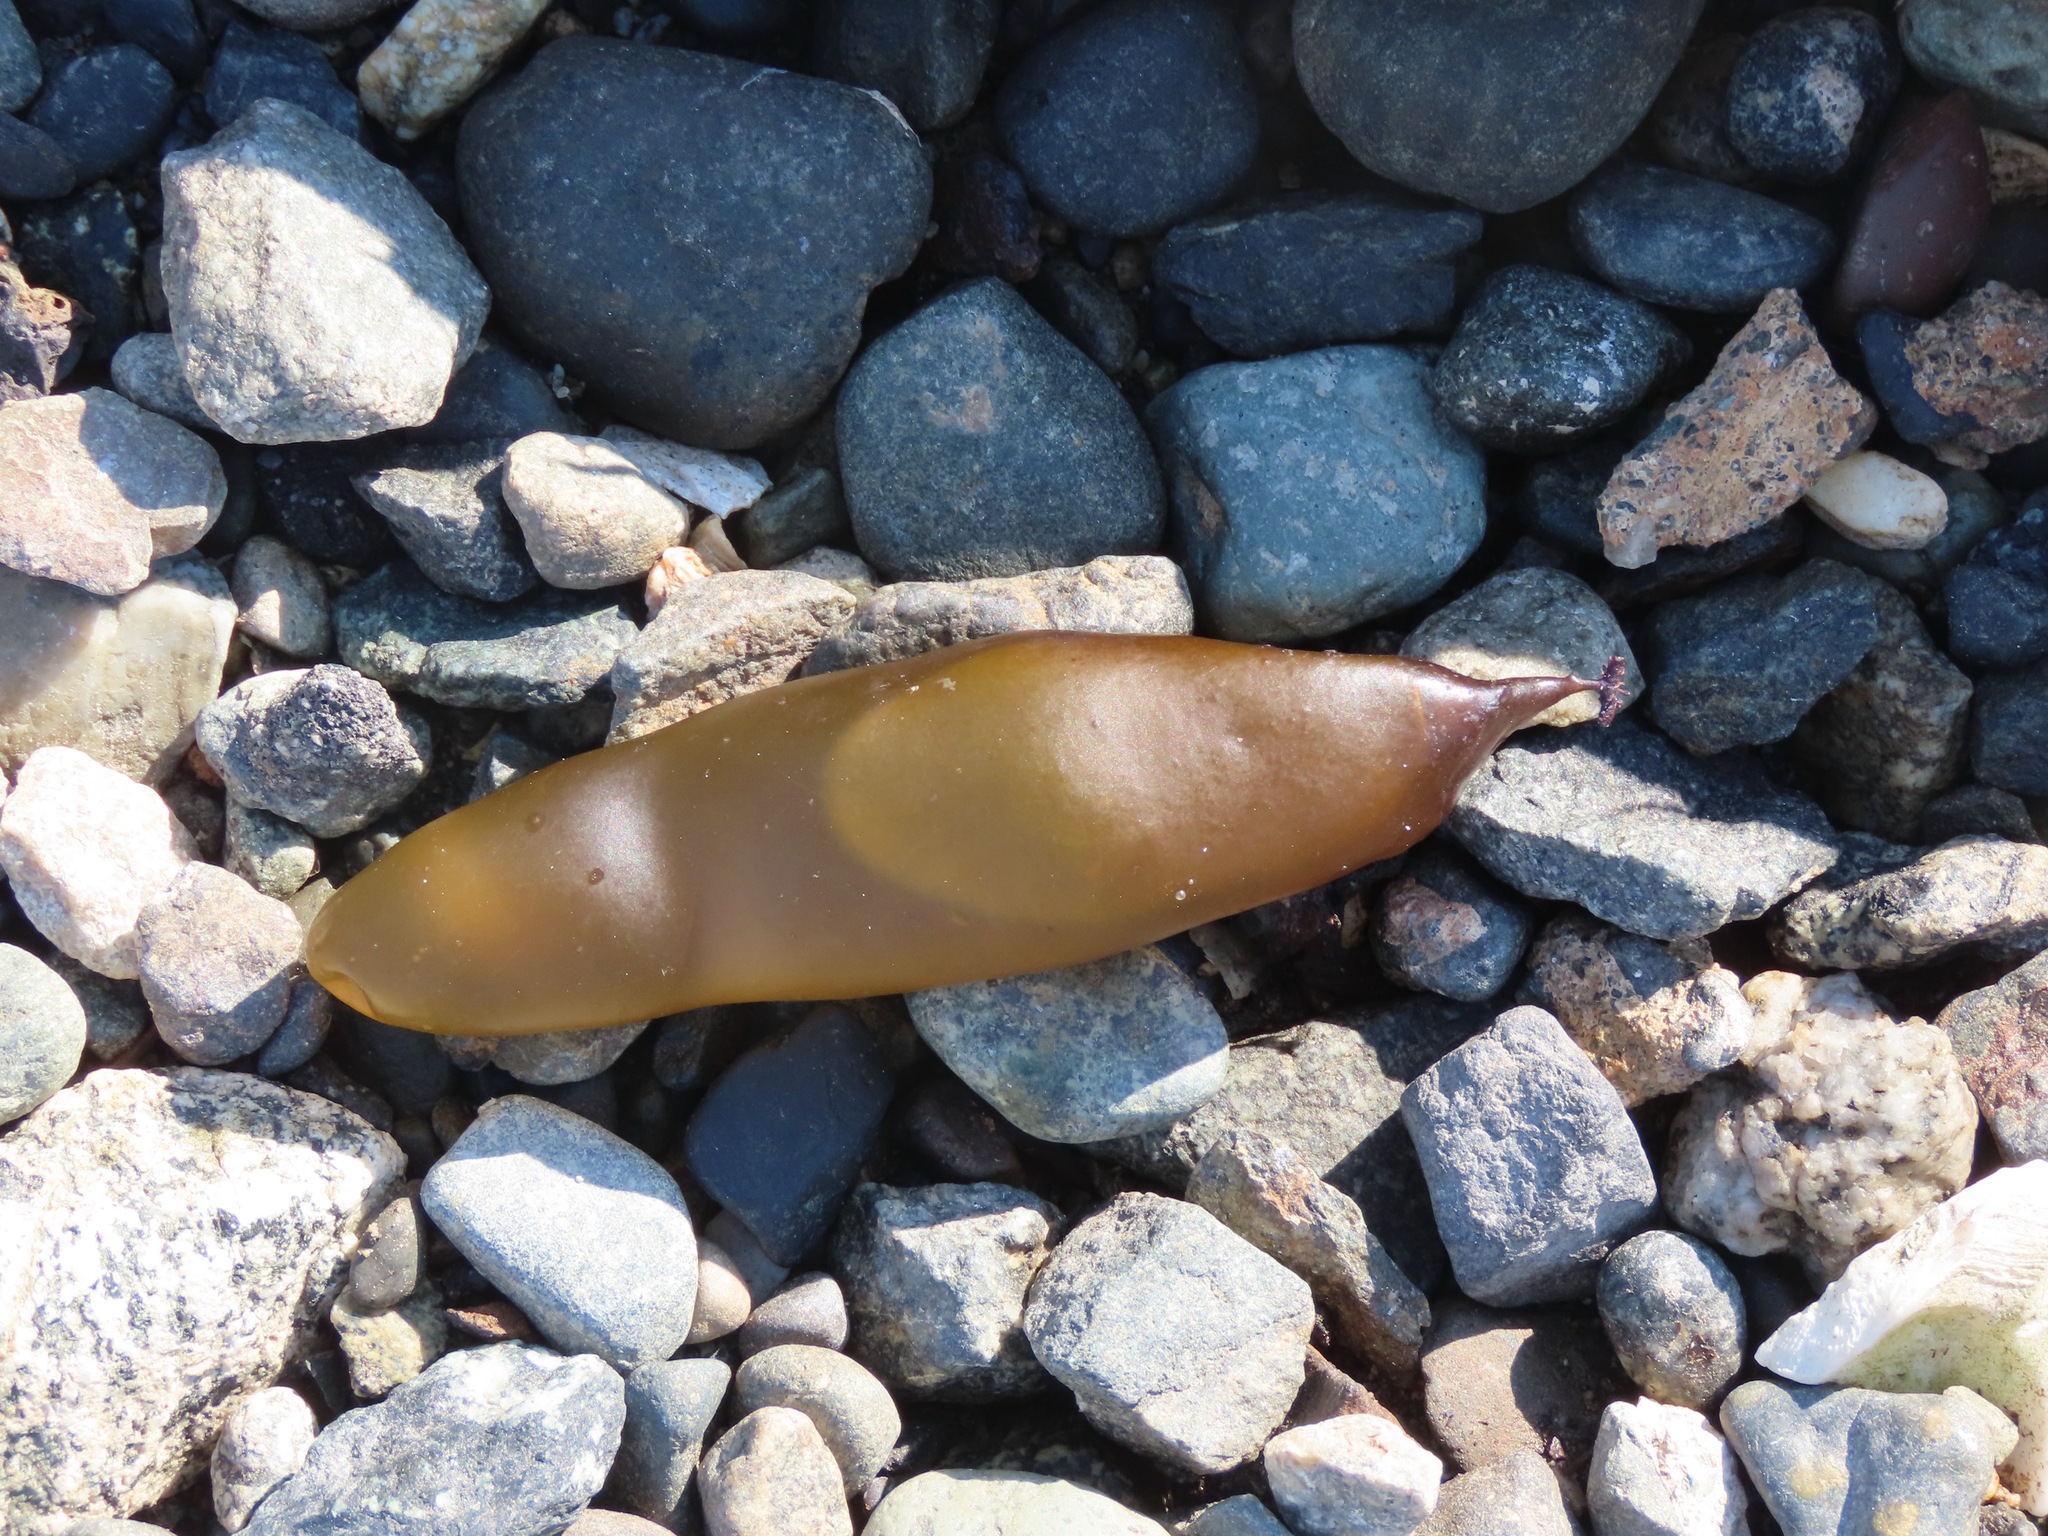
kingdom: Plantae
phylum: Rhodophyta
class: Florideophyceae
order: Palmariales
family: Palmariaceae
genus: Halosaccion
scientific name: Halosaccion glandiforme
